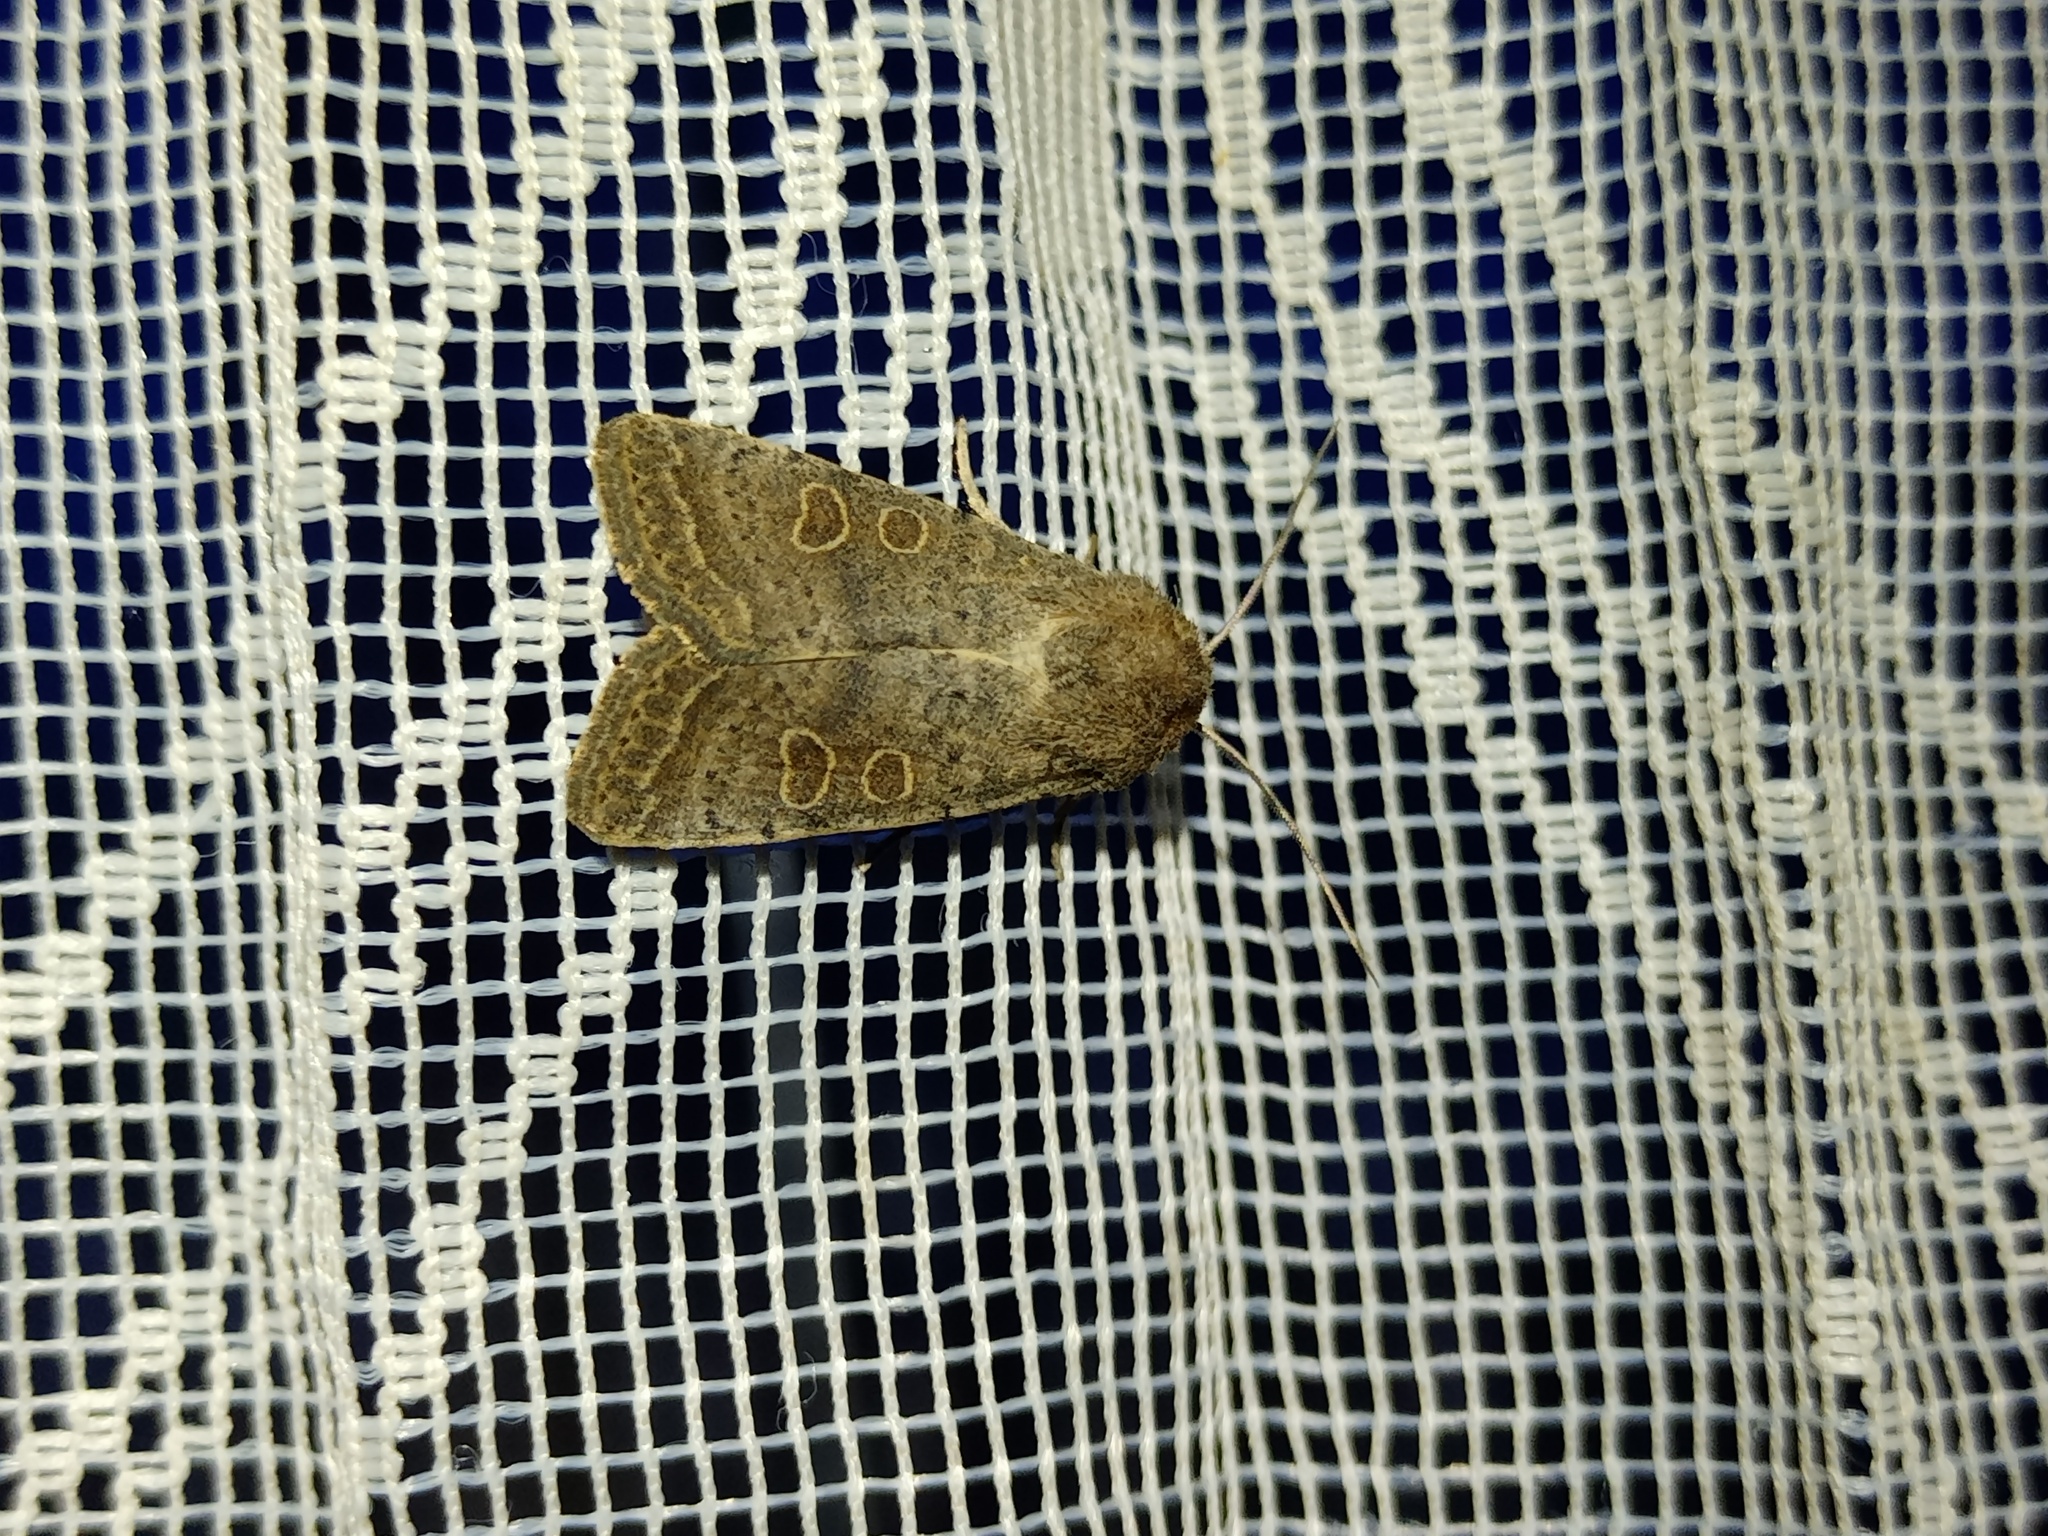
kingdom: Animalia
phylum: Arthropoda
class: Insecta
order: Lepidoptera
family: Noctuidae
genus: Hoplodrina
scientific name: Hoplodrina ambigua
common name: Vine's rustic
